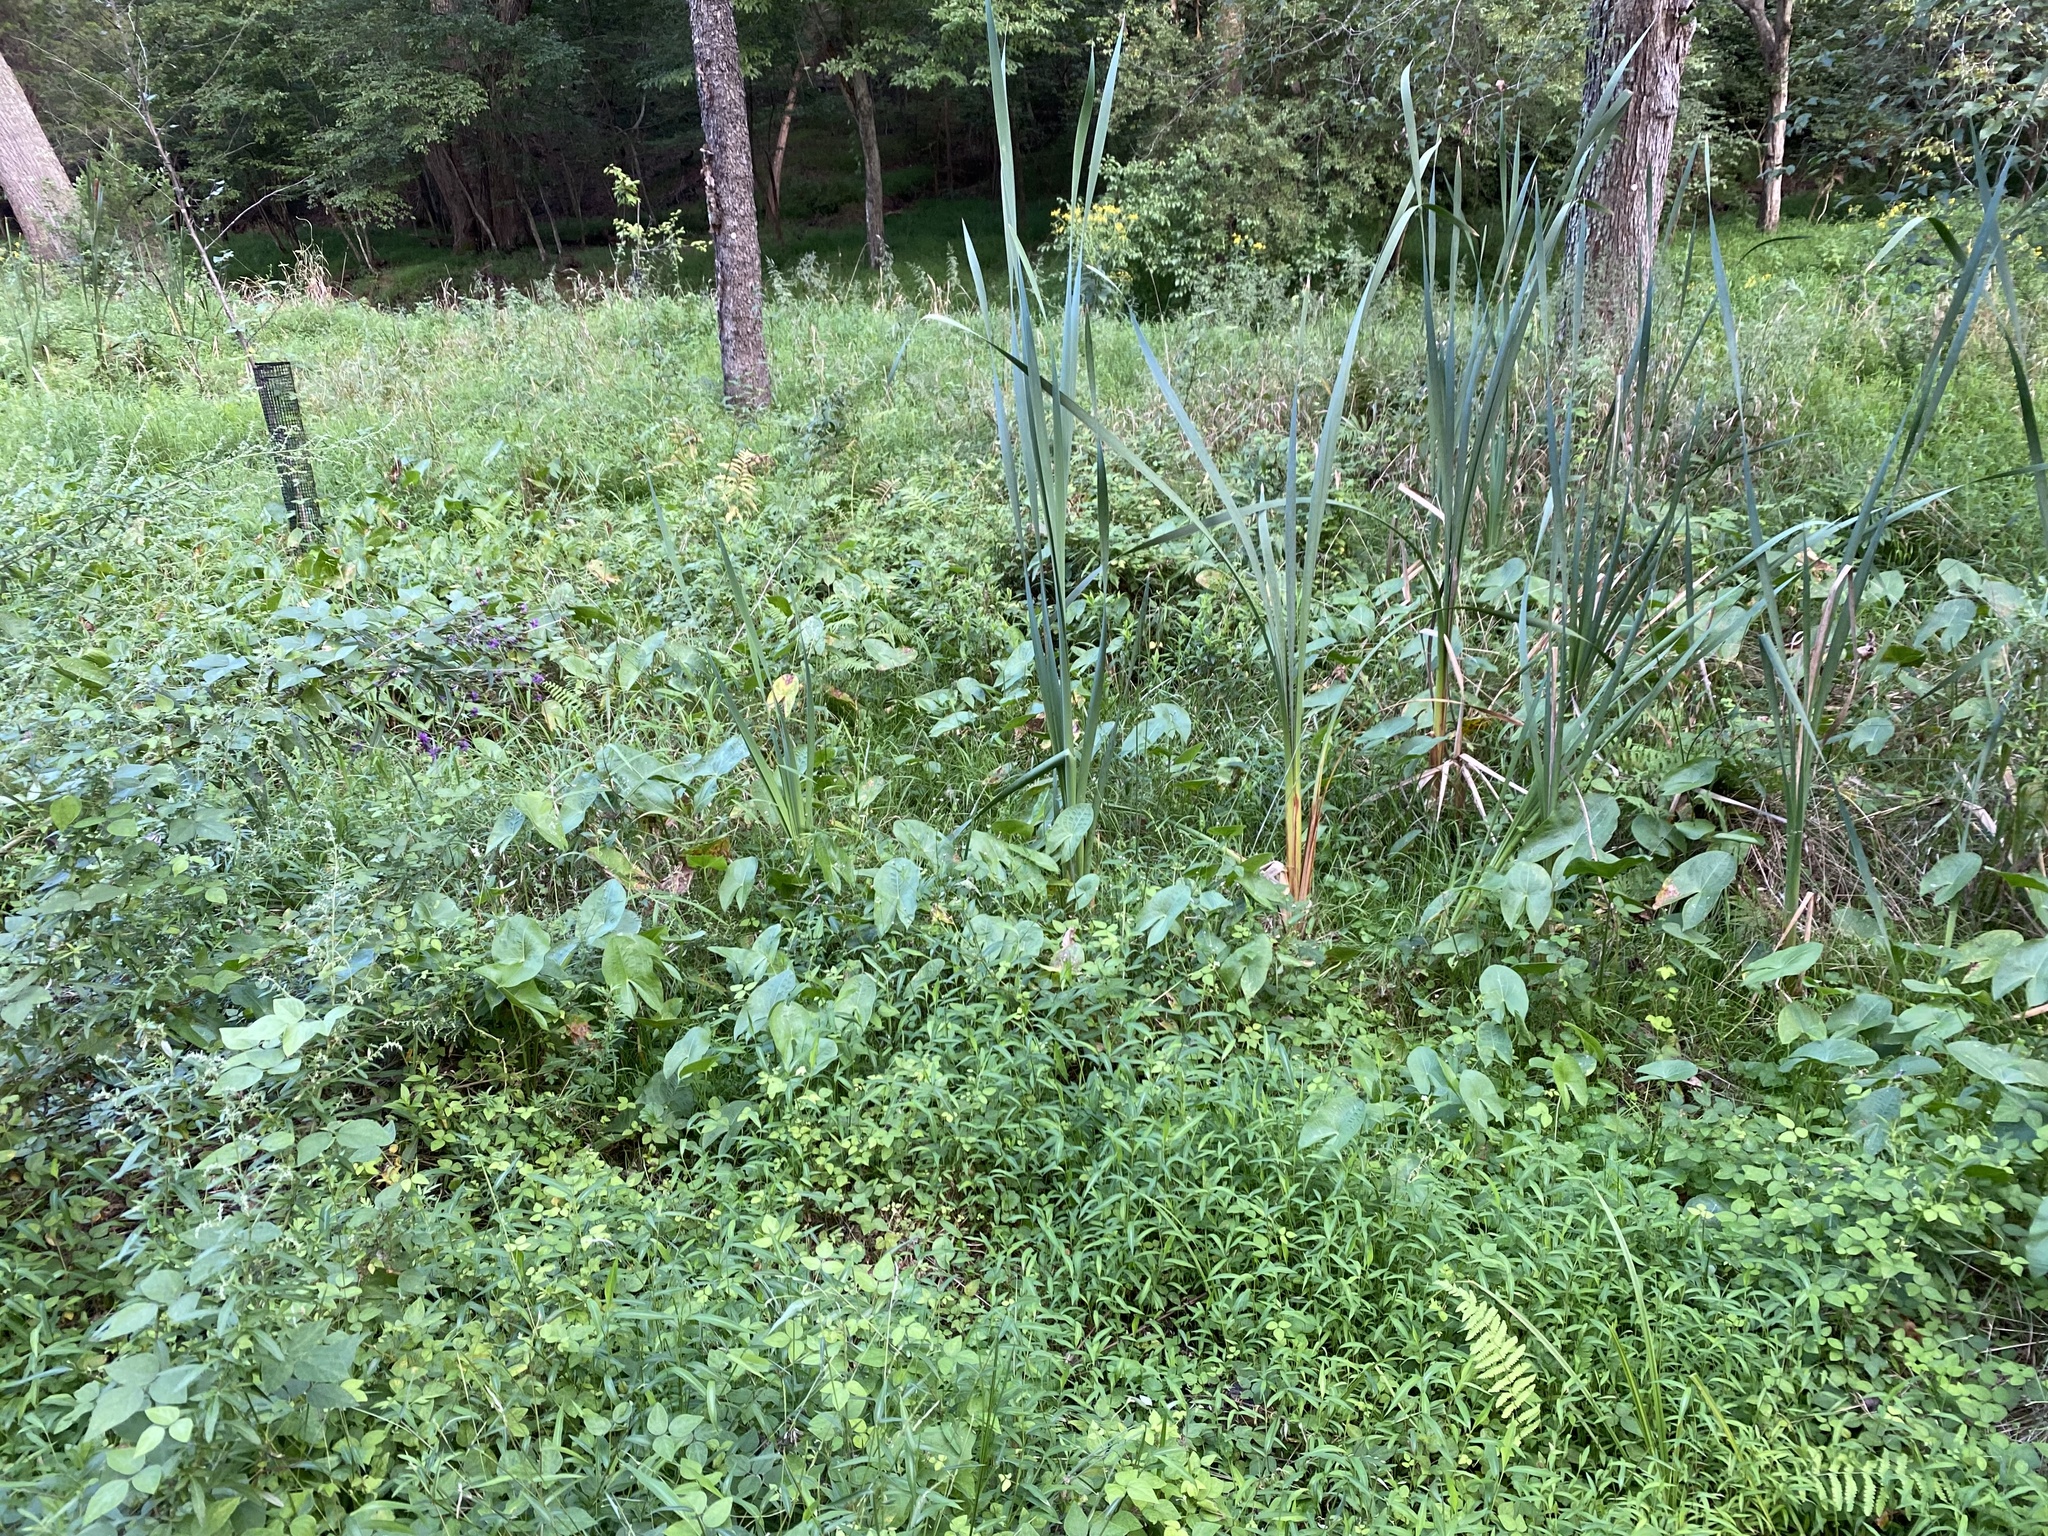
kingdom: Plantae
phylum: Tracheophyta
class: Liliopsida
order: Alismatales
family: Alismataceae
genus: Sagittaria
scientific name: Sagittaria latifolia
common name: Duck-potato
